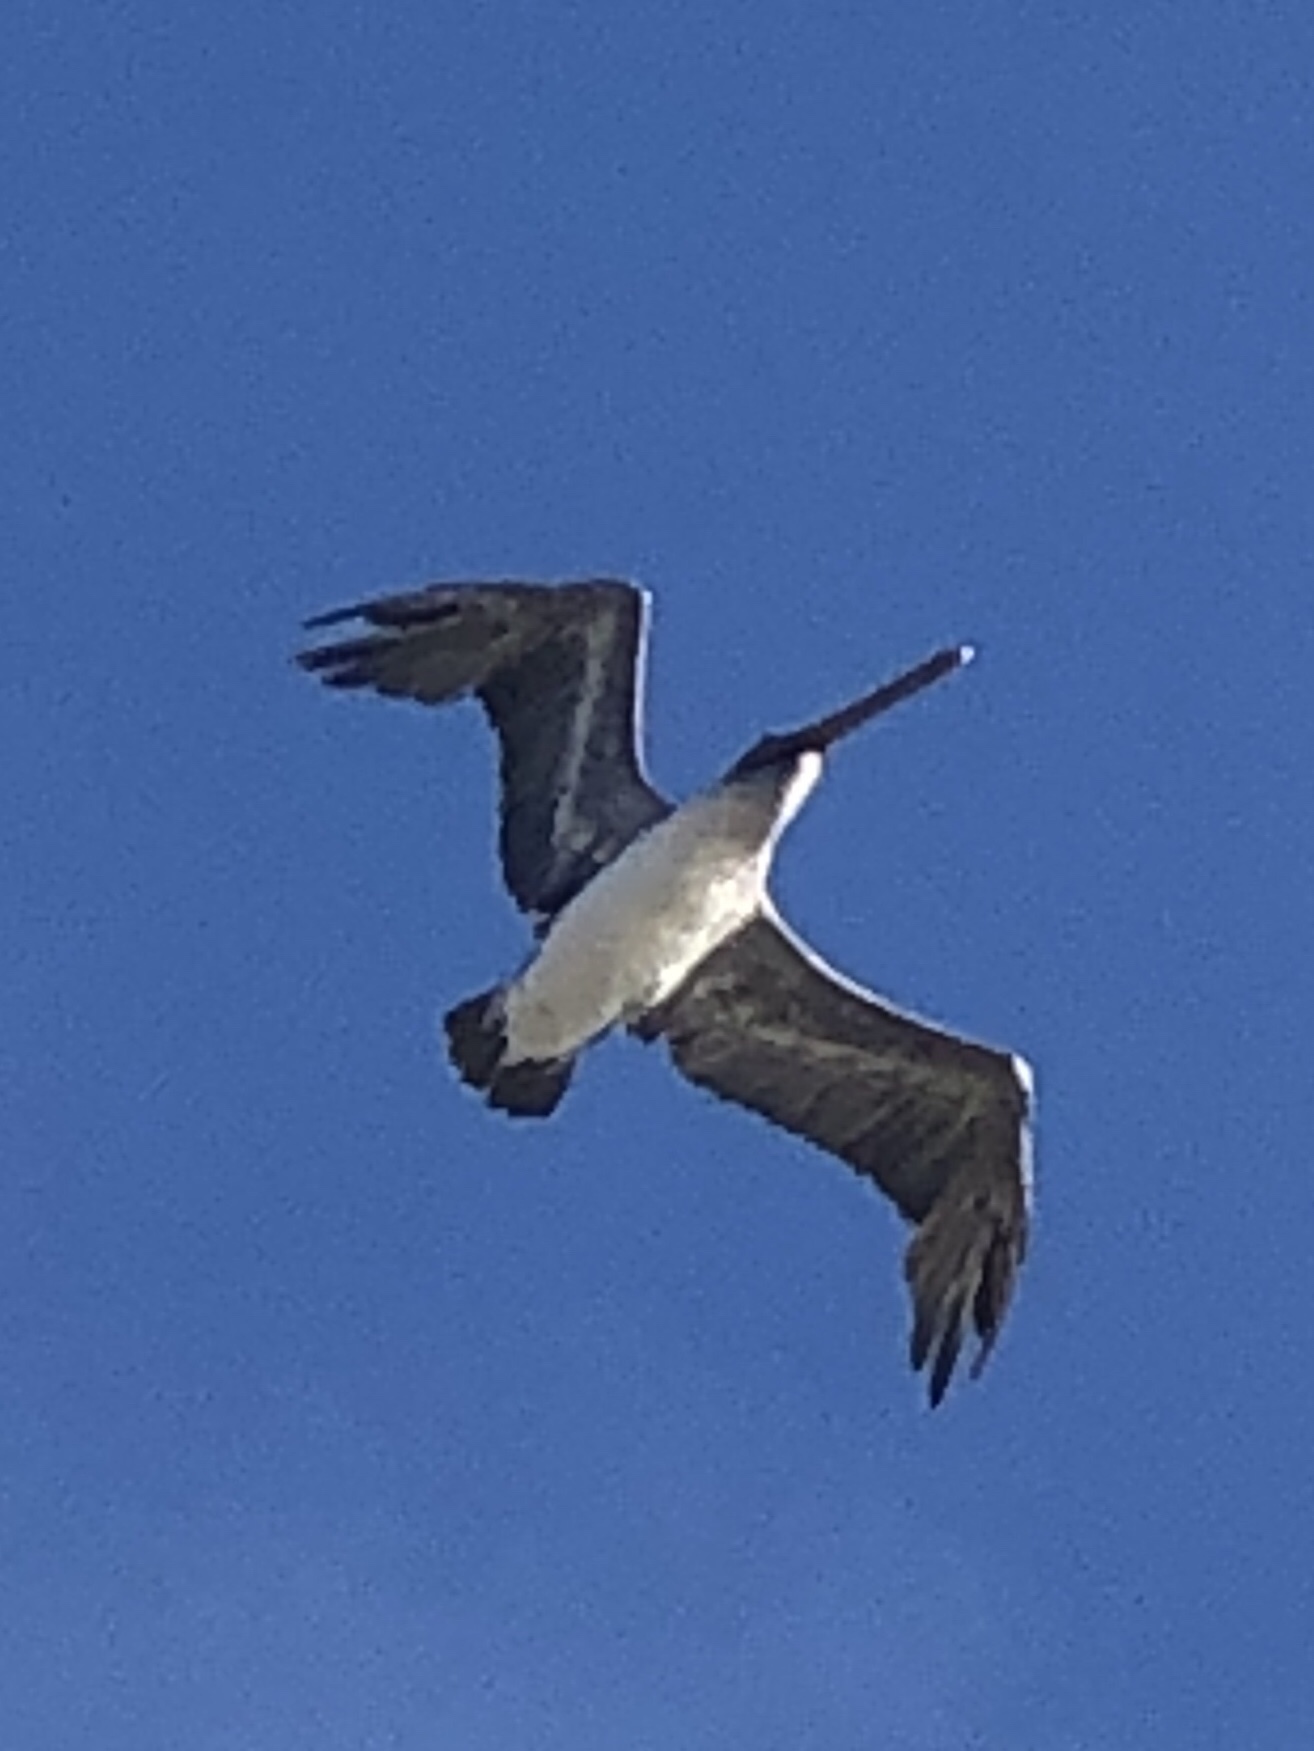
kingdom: Animalia
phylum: Chordata
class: Aves
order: Pelecaniformes
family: Pelecanidae
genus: Pelecanus
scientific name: Pelecanus occidentalis
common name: Brown pelican
